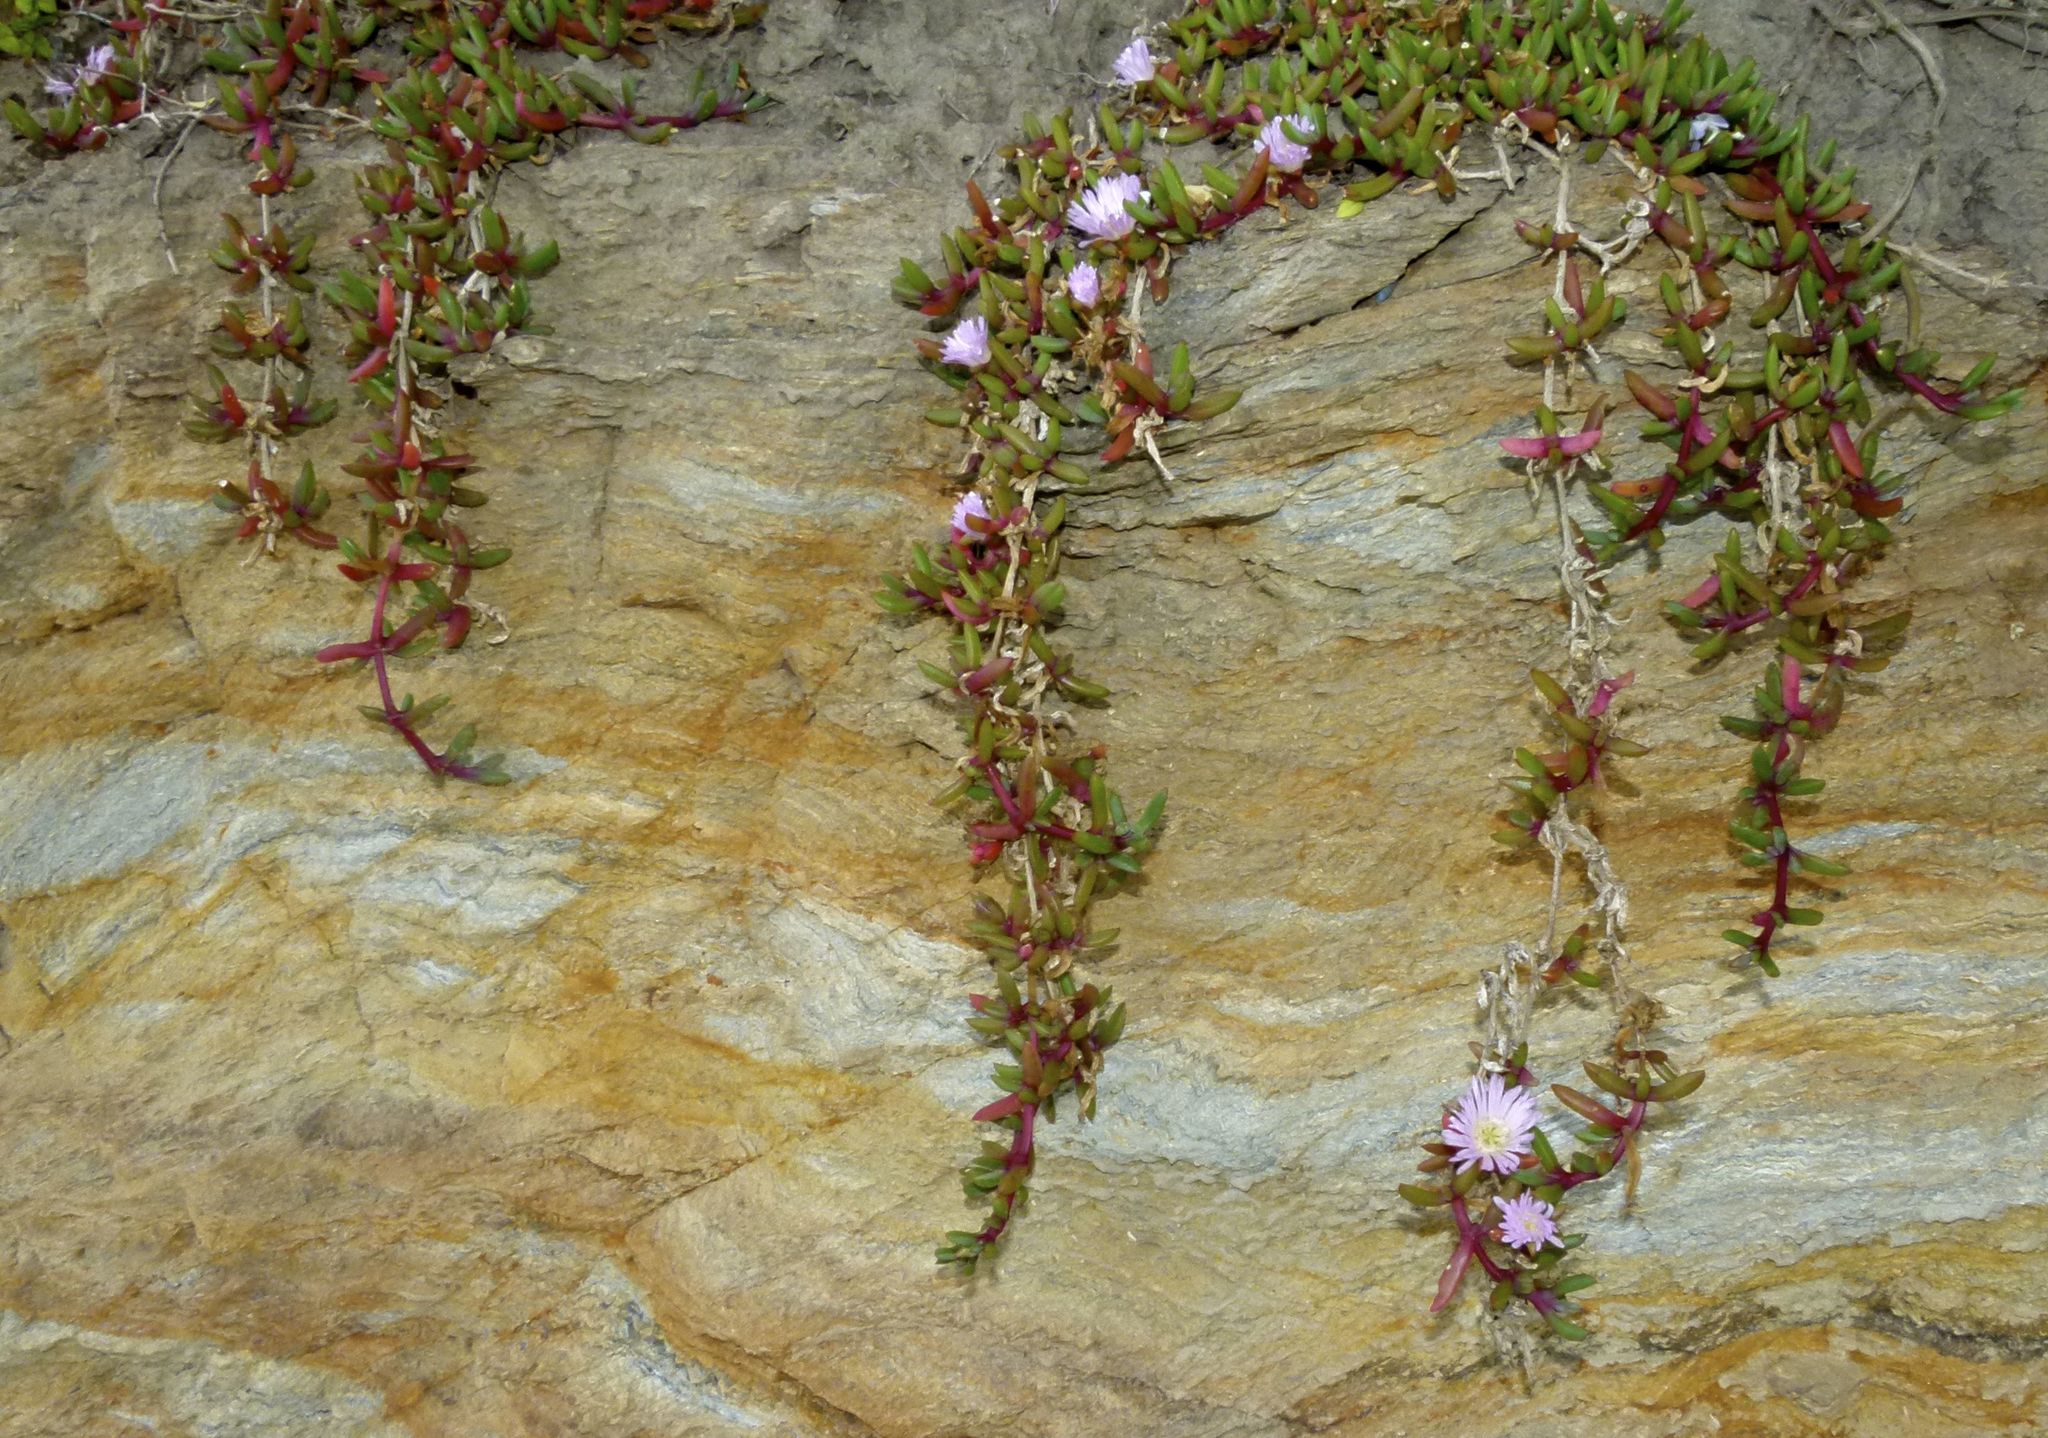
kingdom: Plantae
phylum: Tracheophyta
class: Magnoliopsida
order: Caryophyllales
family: Aizoaceae
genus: Disphyma
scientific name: Disphyma australe
